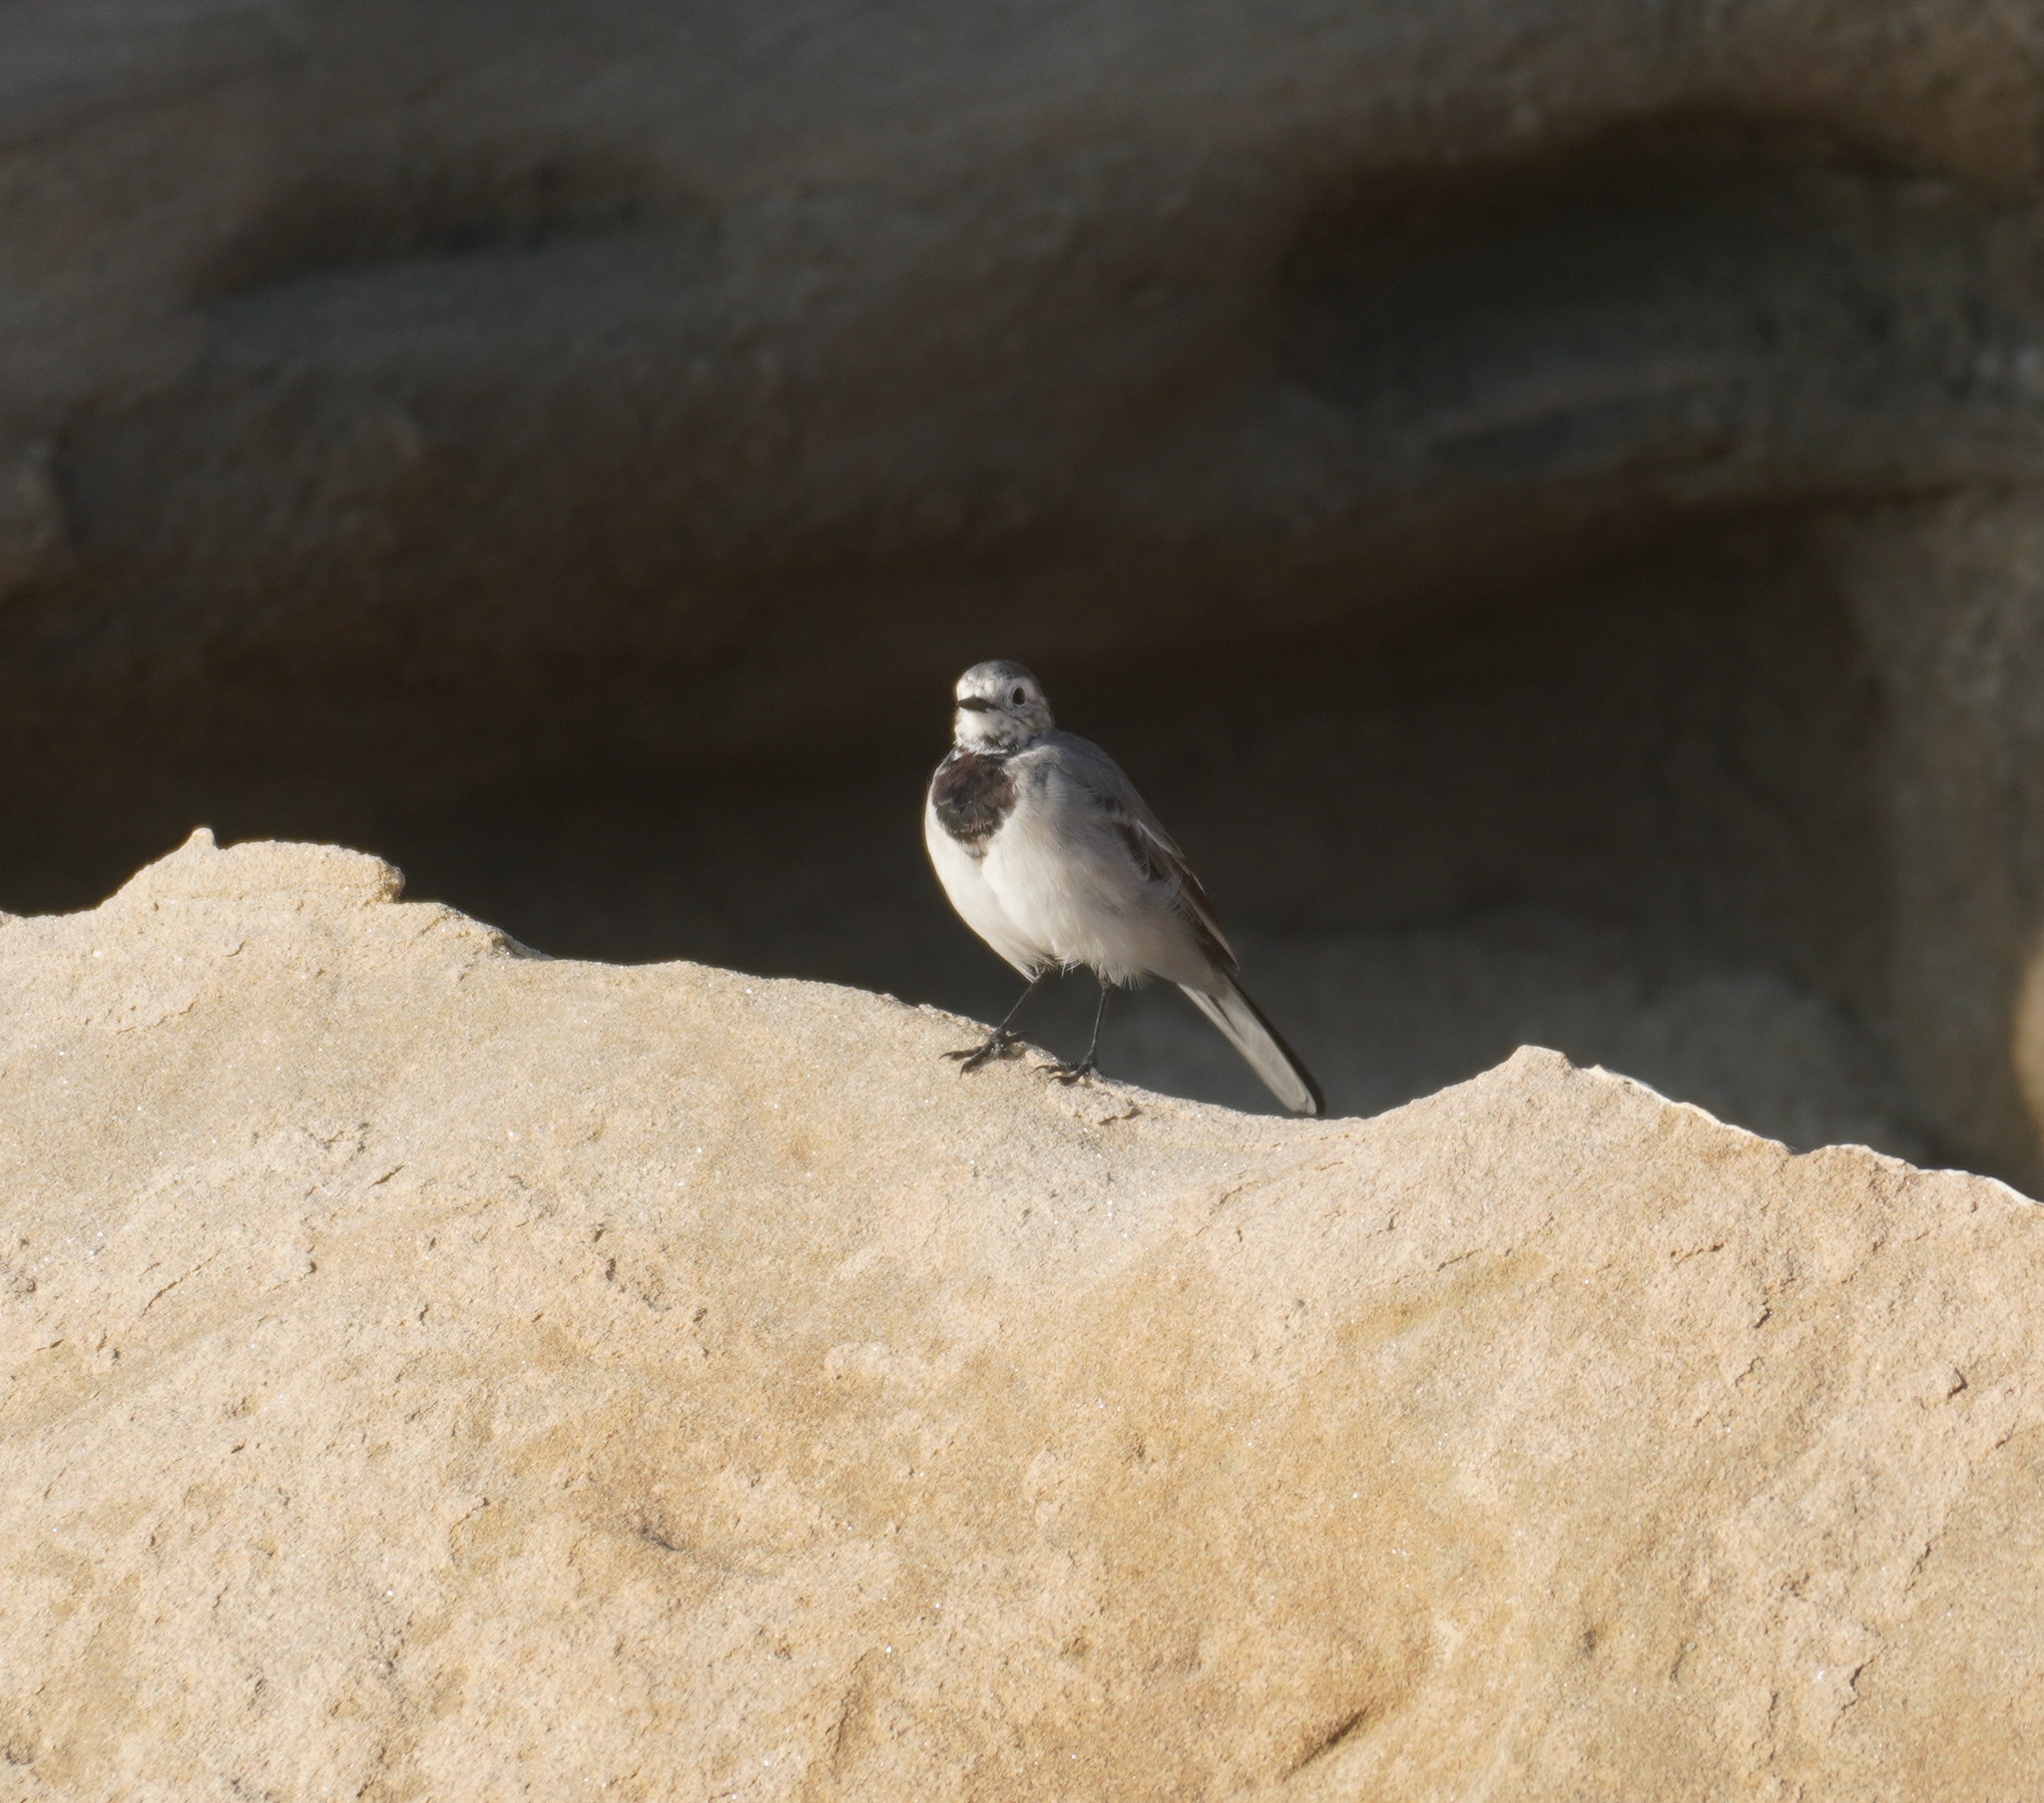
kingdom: Animalia
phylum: Chordata
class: Aves
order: Passeriformes
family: Motacillidae
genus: Motacilla
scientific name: Motacilla alba
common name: White wagtail
